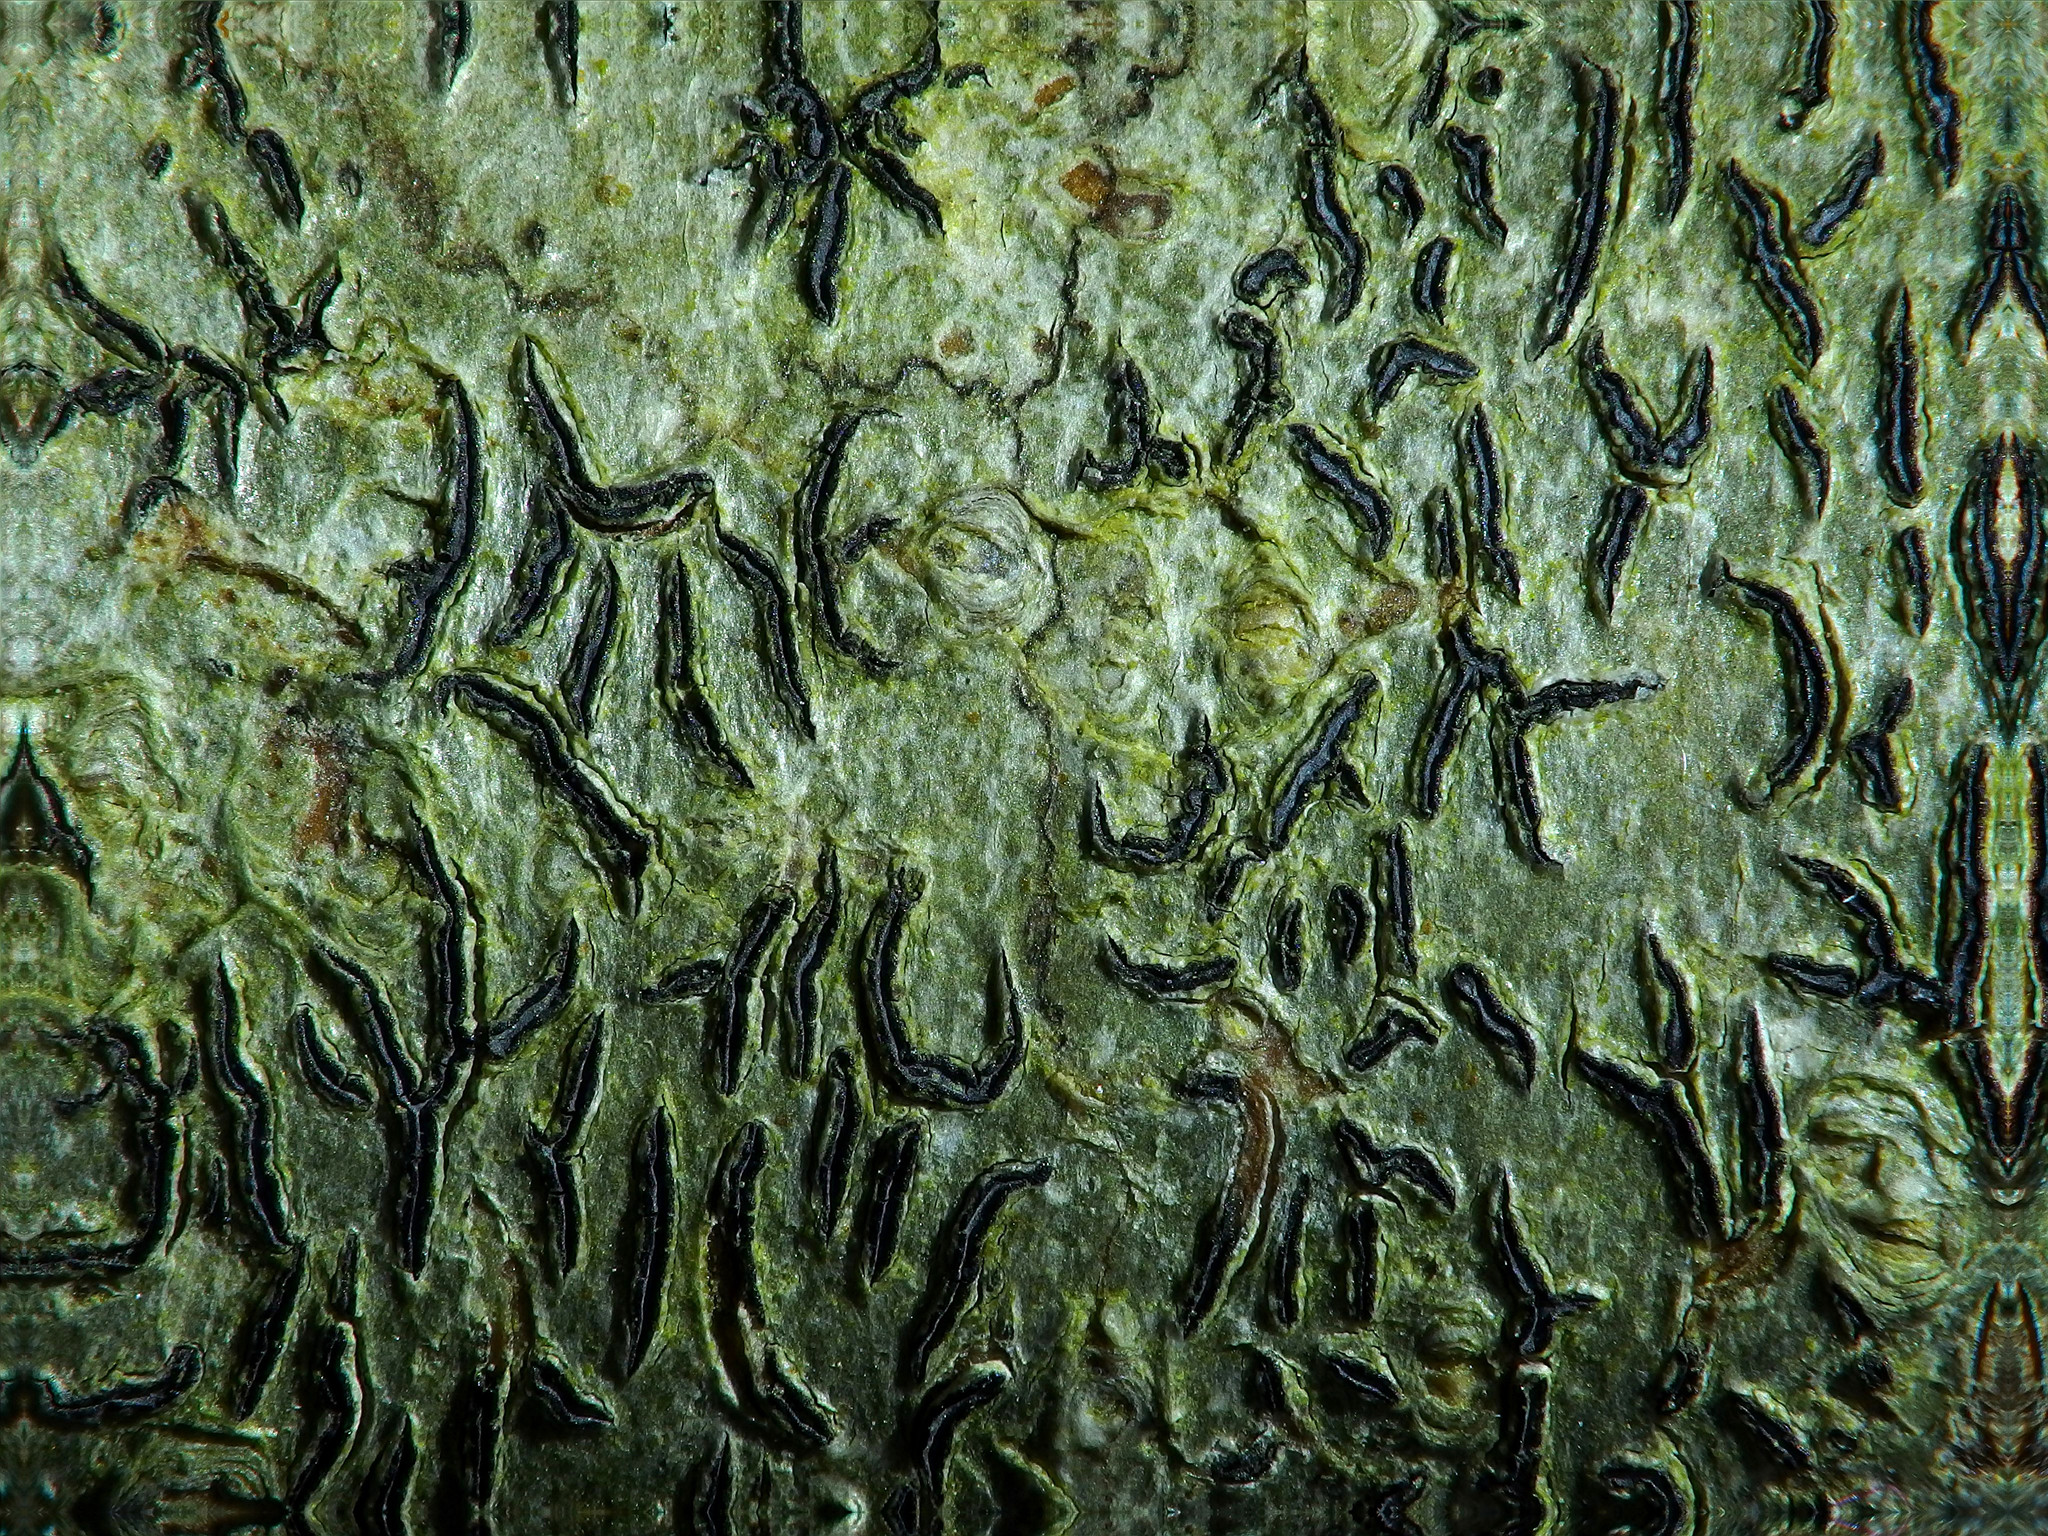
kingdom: Fungi
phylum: Ascomycota
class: Lecanoromycetes
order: Ostropales
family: Graphidaceae
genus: Graphis
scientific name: Graphis scripta
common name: Script lichen
